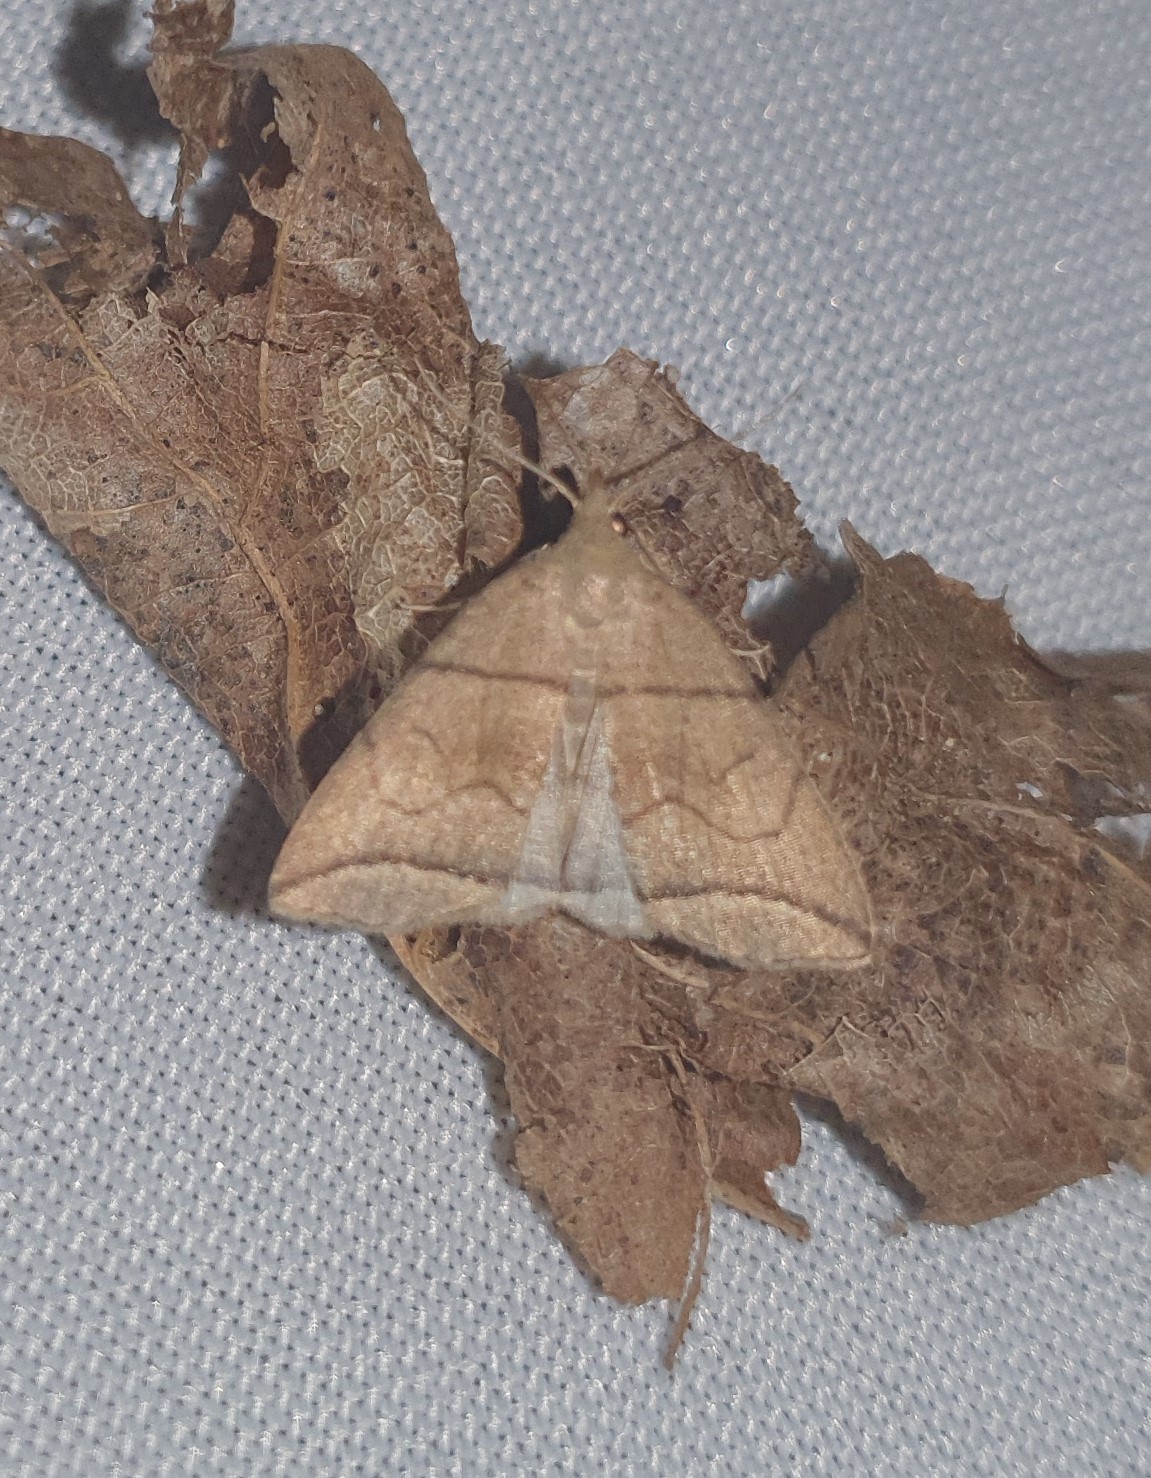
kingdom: Animalia
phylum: Arthropoda
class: Insecta
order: Lepidoptera
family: Erebidae
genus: Herminia
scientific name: Herminia grisealis
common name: Small fan-foot
